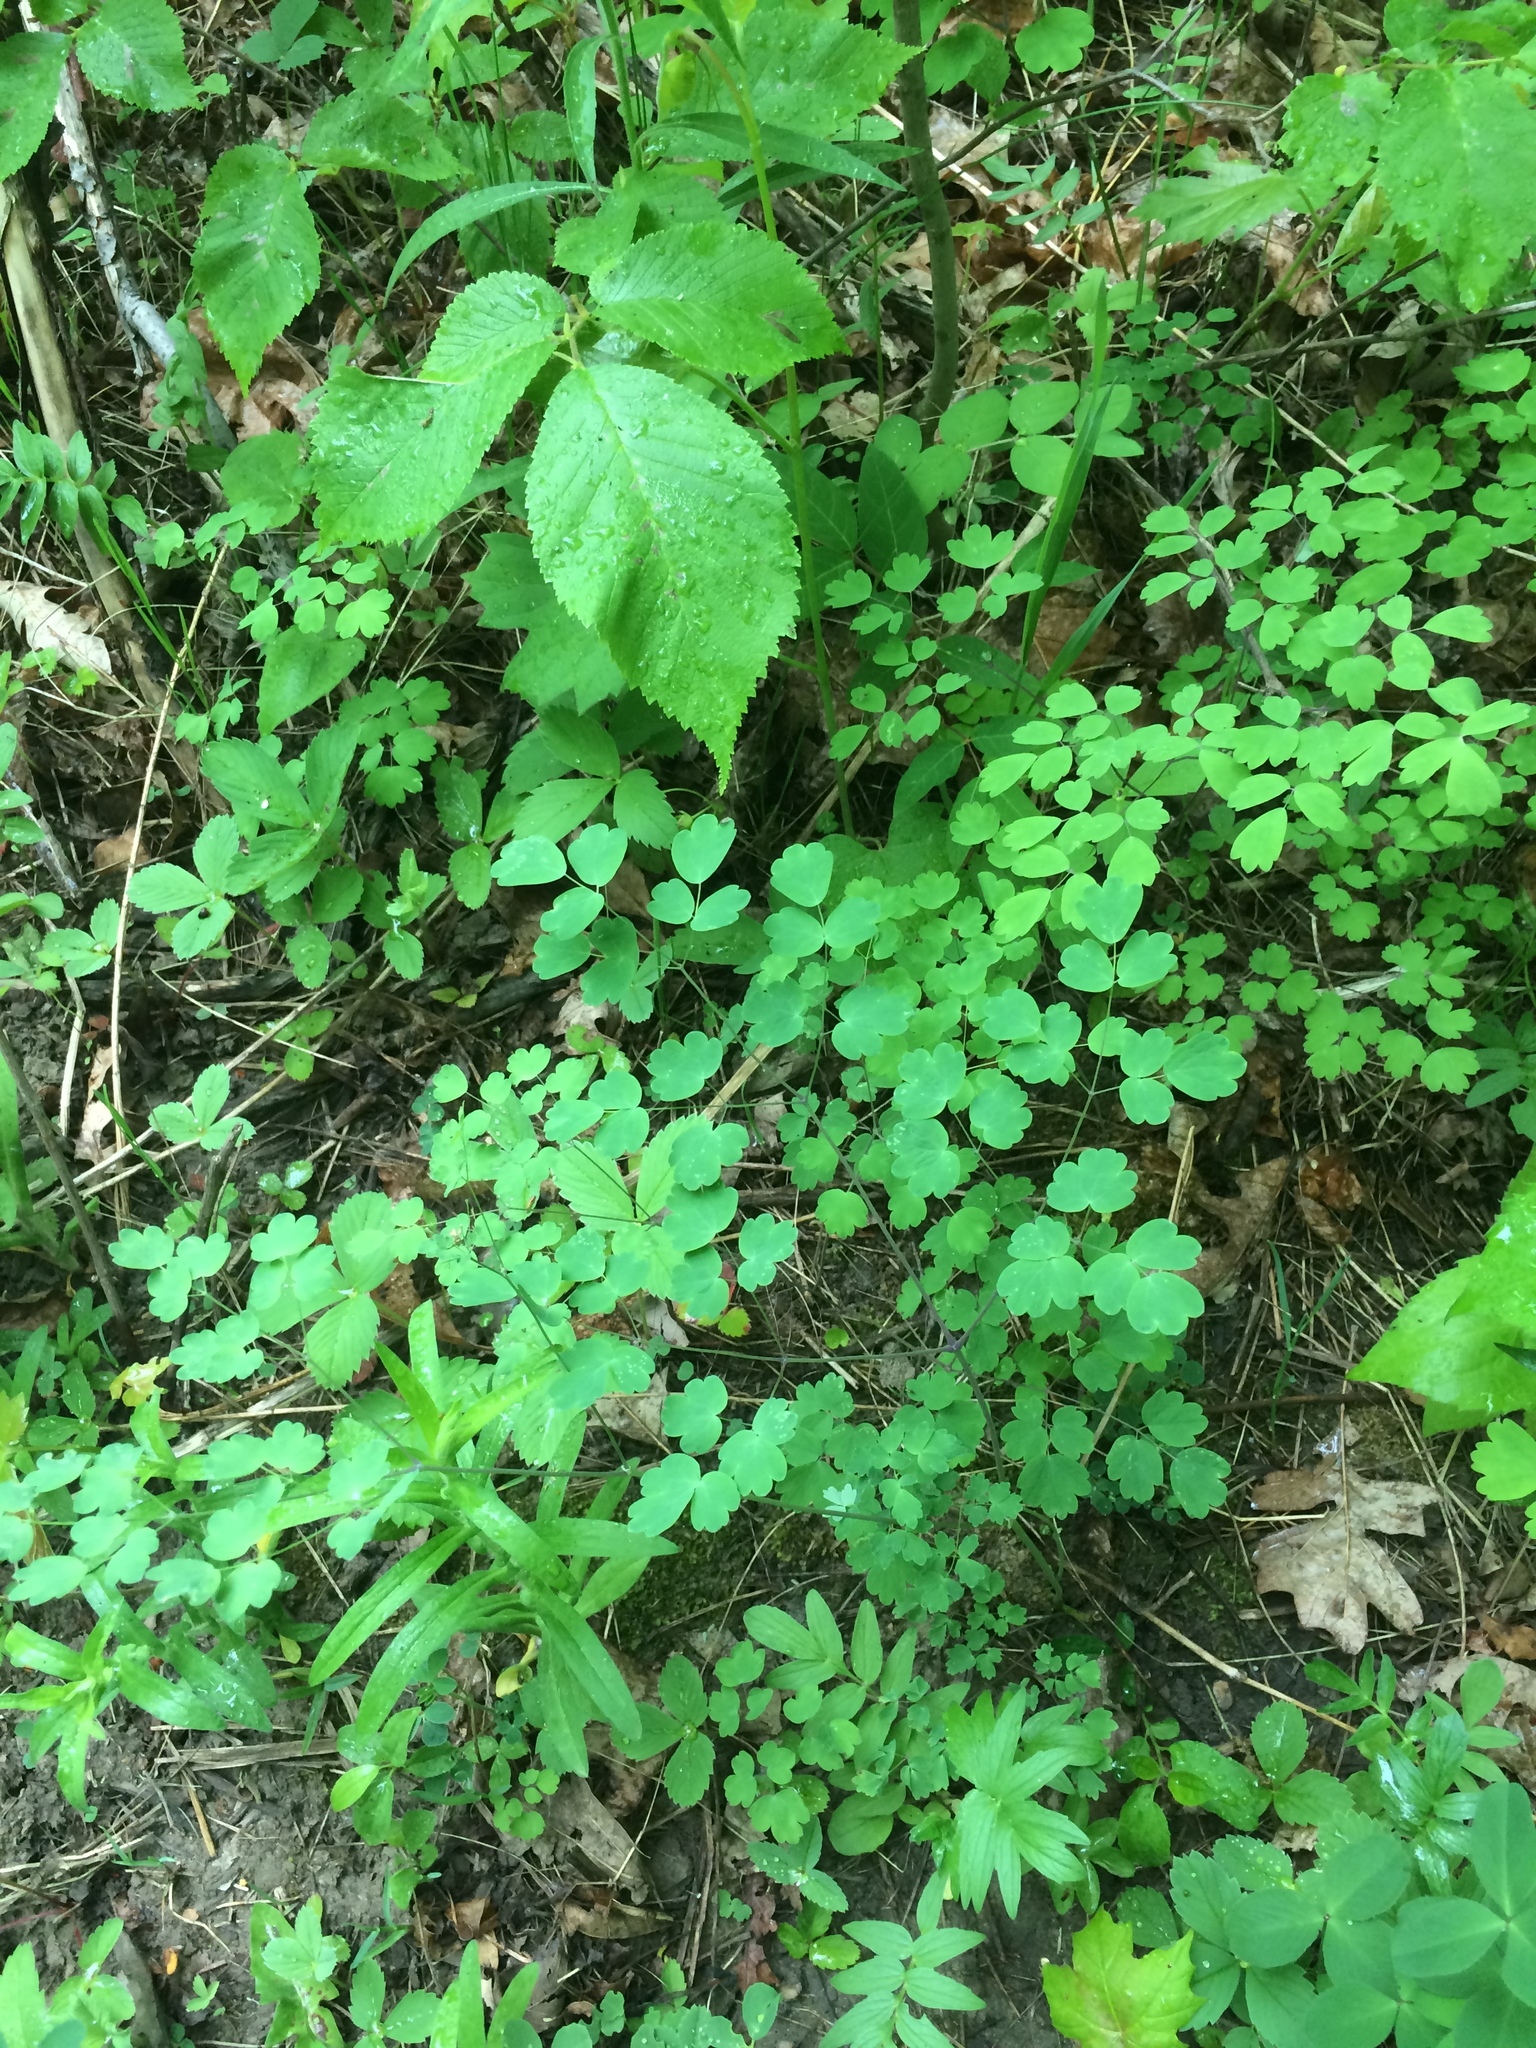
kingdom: Plantae
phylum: Tracheophyta
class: Magnoliopsida
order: Ranunculales
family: Ranunculaceae
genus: Thalictrum
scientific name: Thalictrum dioicum
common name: Early meadow-rue
